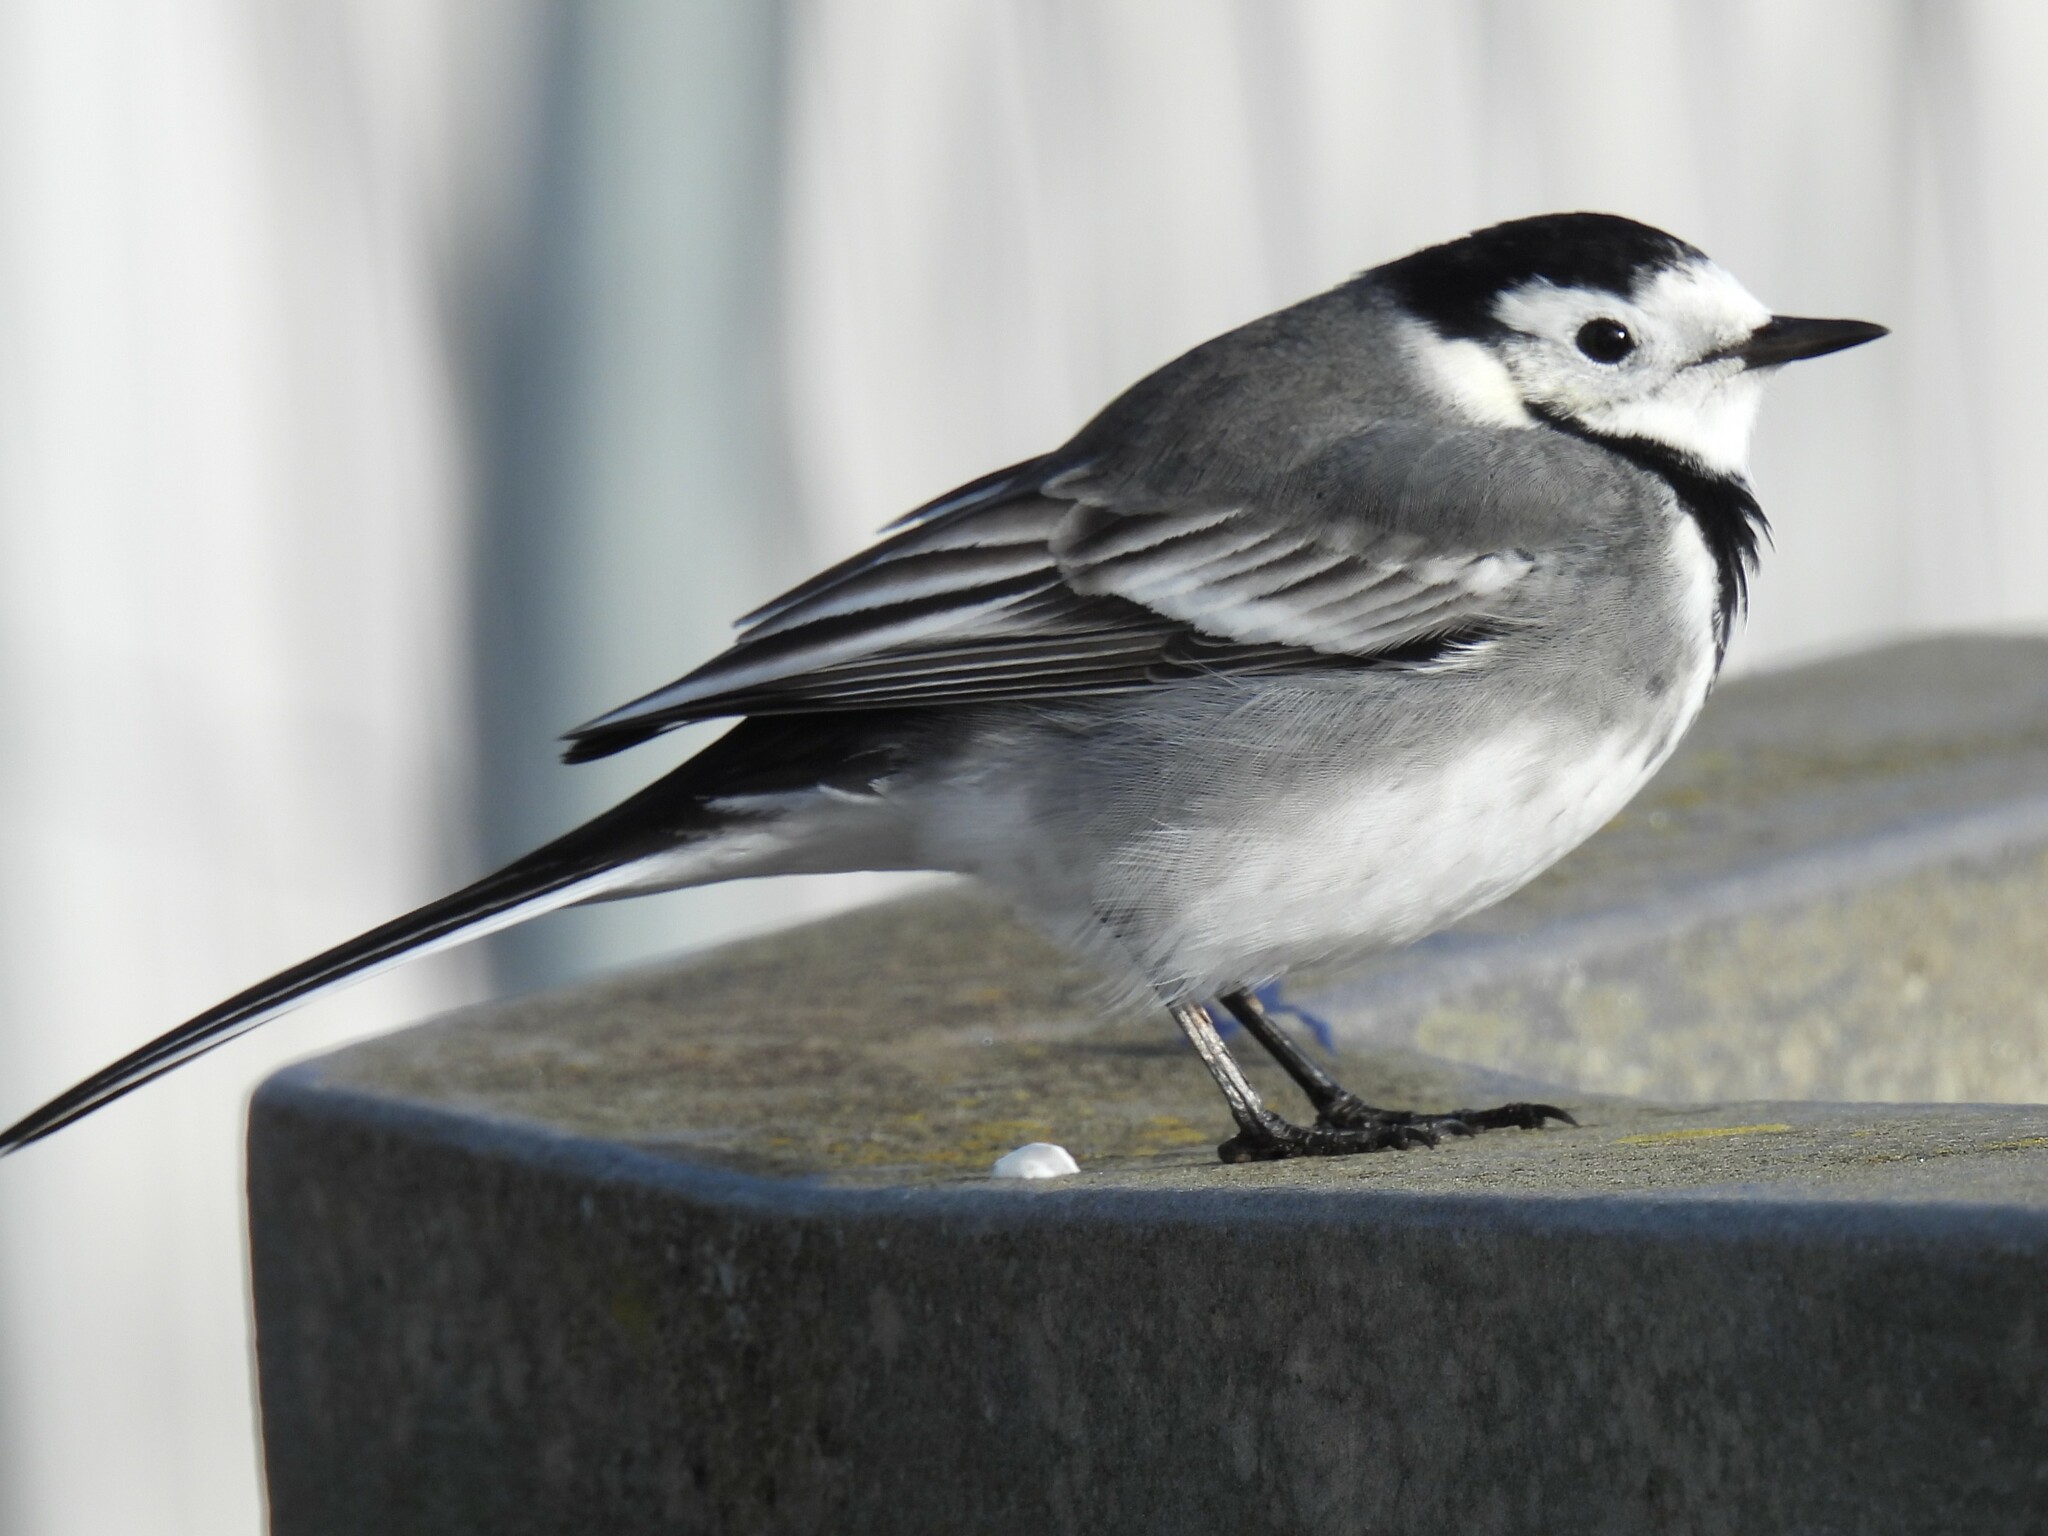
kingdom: Animalia
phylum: Chordata
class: Aves
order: Passeriformes
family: Motacillidae
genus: Motacilla
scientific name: Motacilla alba
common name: White wagtail
